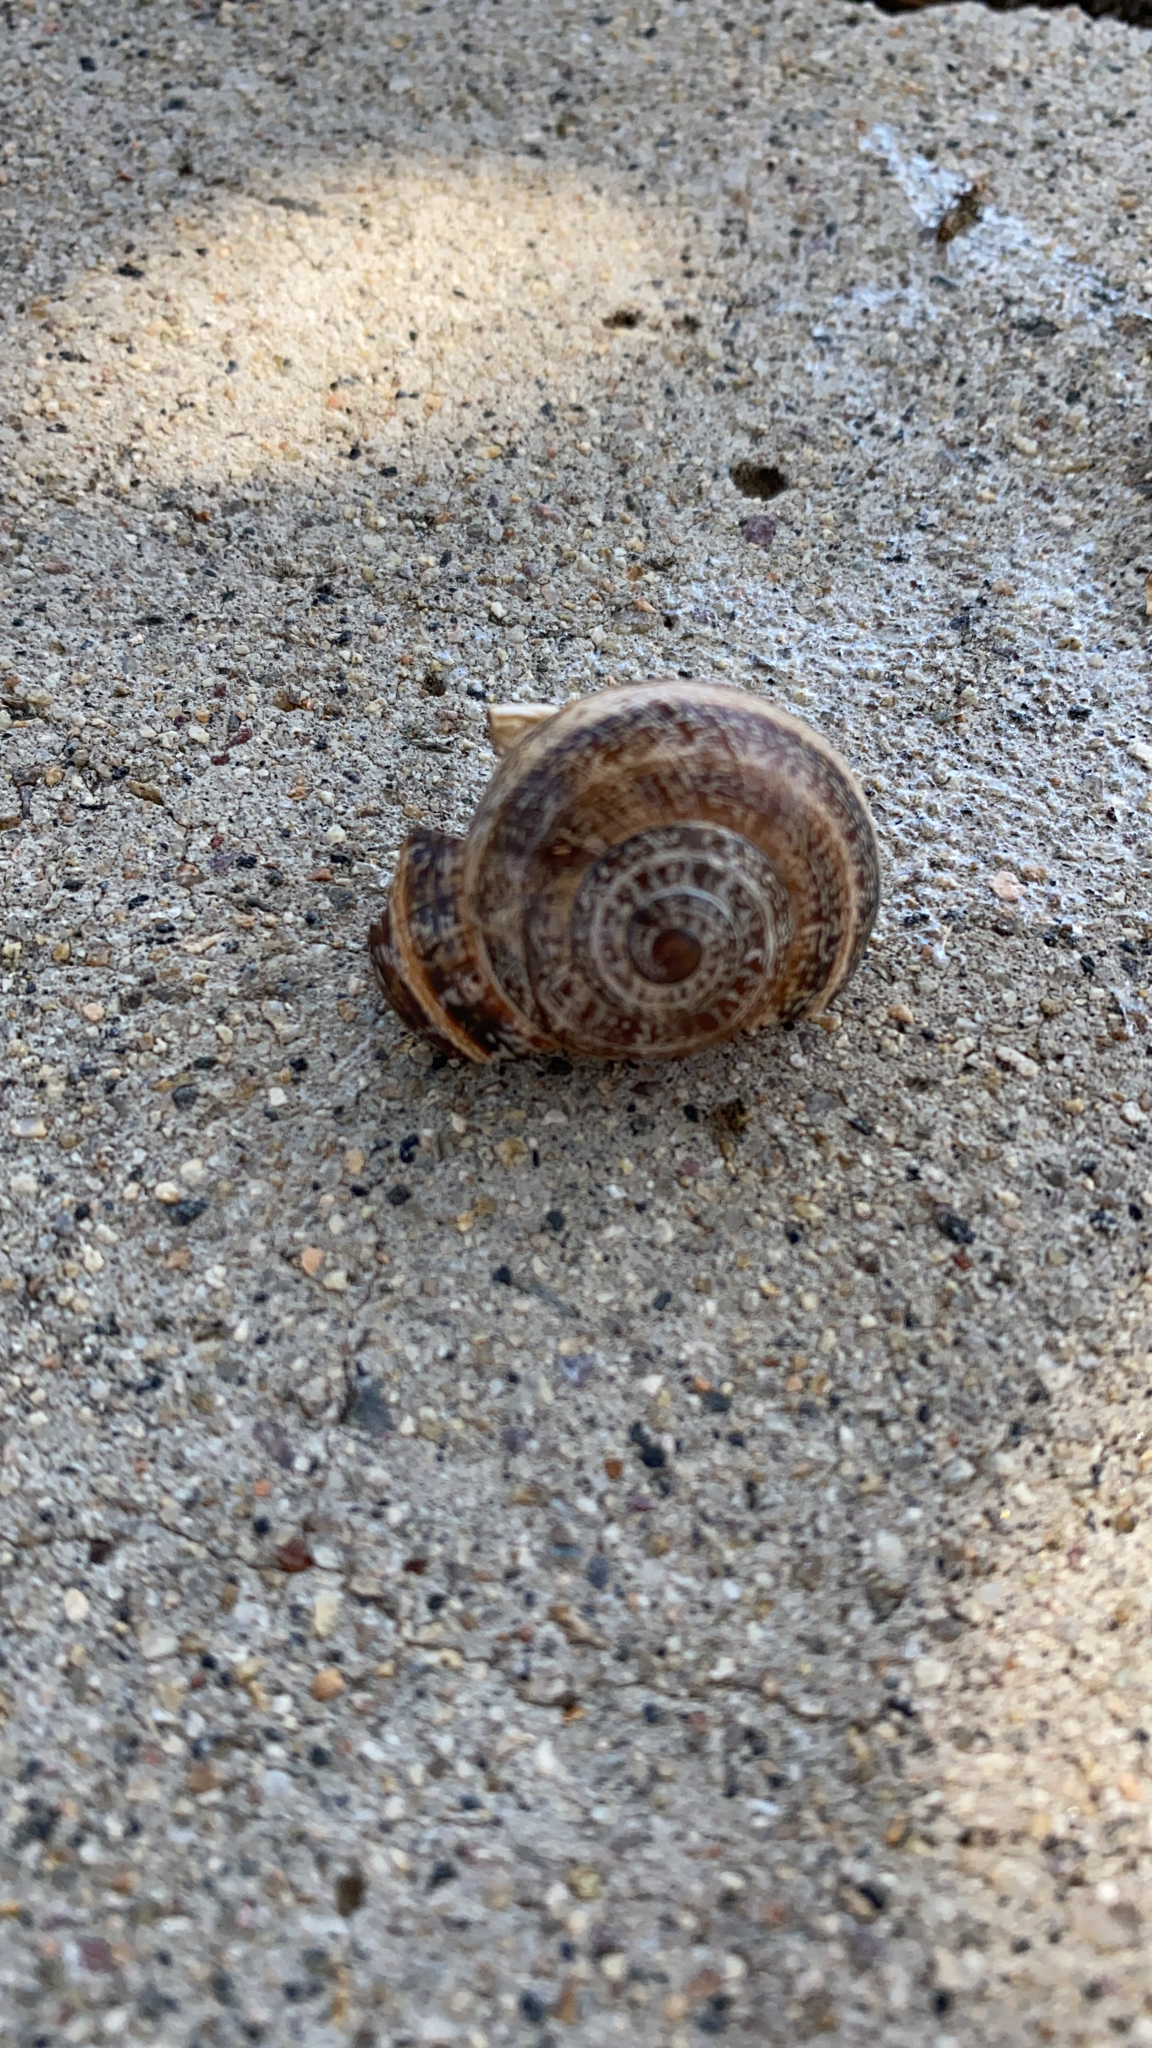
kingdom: Animalia
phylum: Mollusca
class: Gastropoda
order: Stylommatophora
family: Helicidae
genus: Otala
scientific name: Otala lactea
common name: Milk snail
